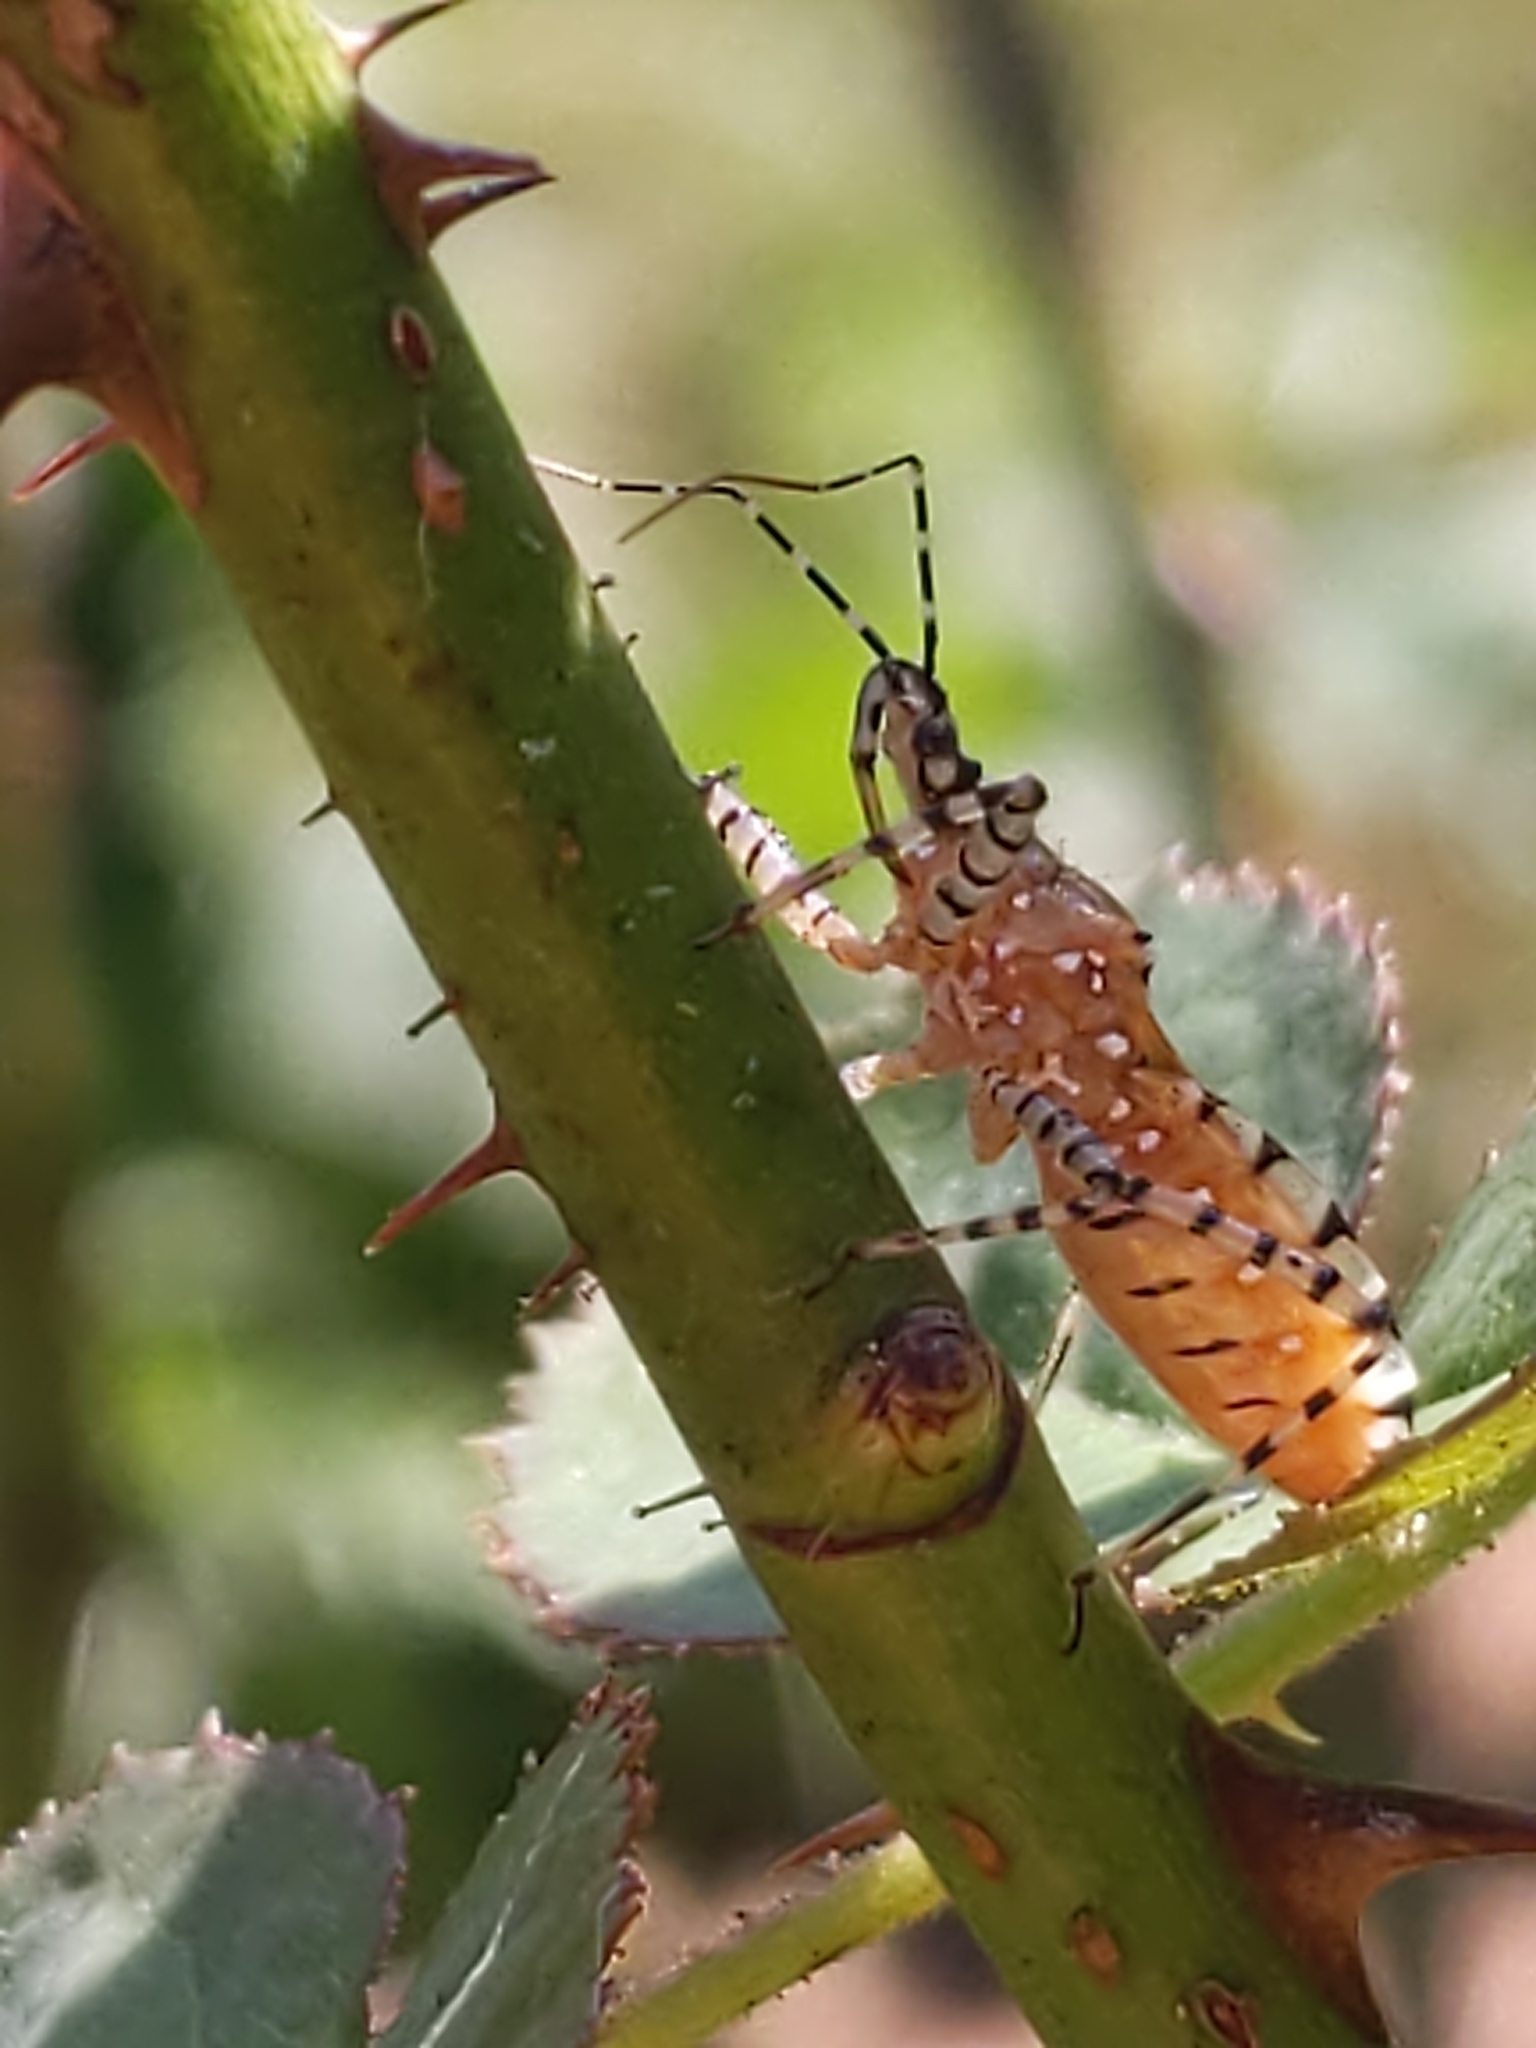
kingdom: Animalia
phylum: Arthropoda
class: Insecta
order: Hemiptera
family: Reduviidae
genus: Pselliopus
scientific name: Pselliopus cinctus
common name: Ringed assassin bug
